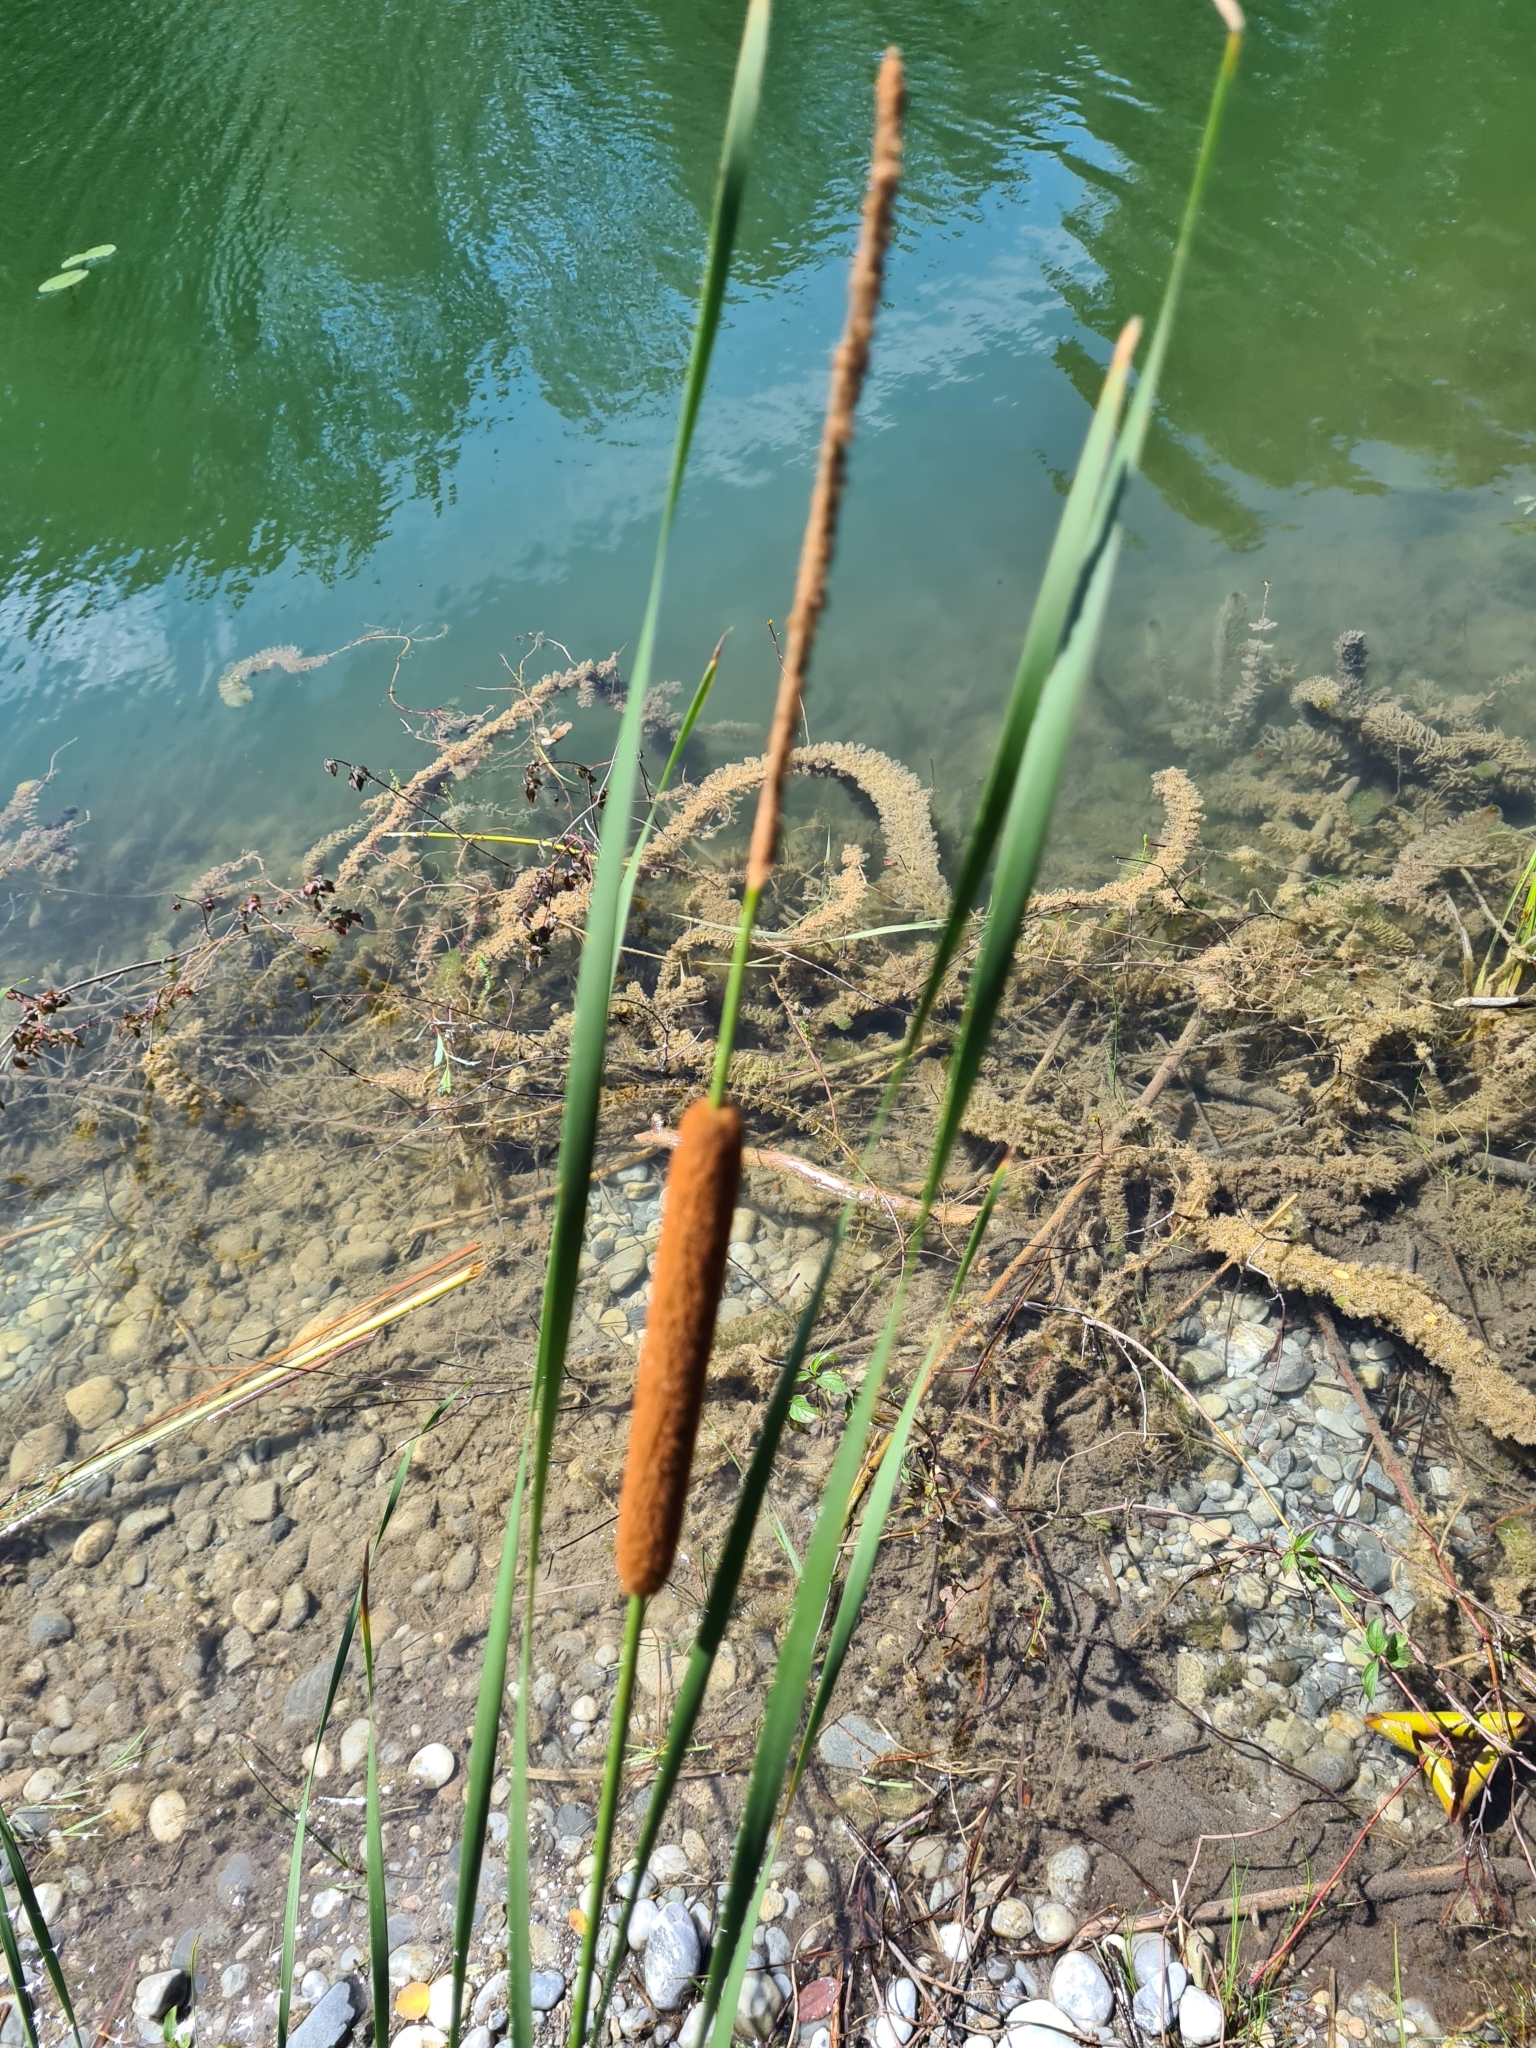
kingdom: Plantae
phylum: Tracheophyta
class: Liliopsida
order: Poales
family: Typhaceae
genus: Typha
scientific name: Typha angustifolia
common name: Lesser bulrush
